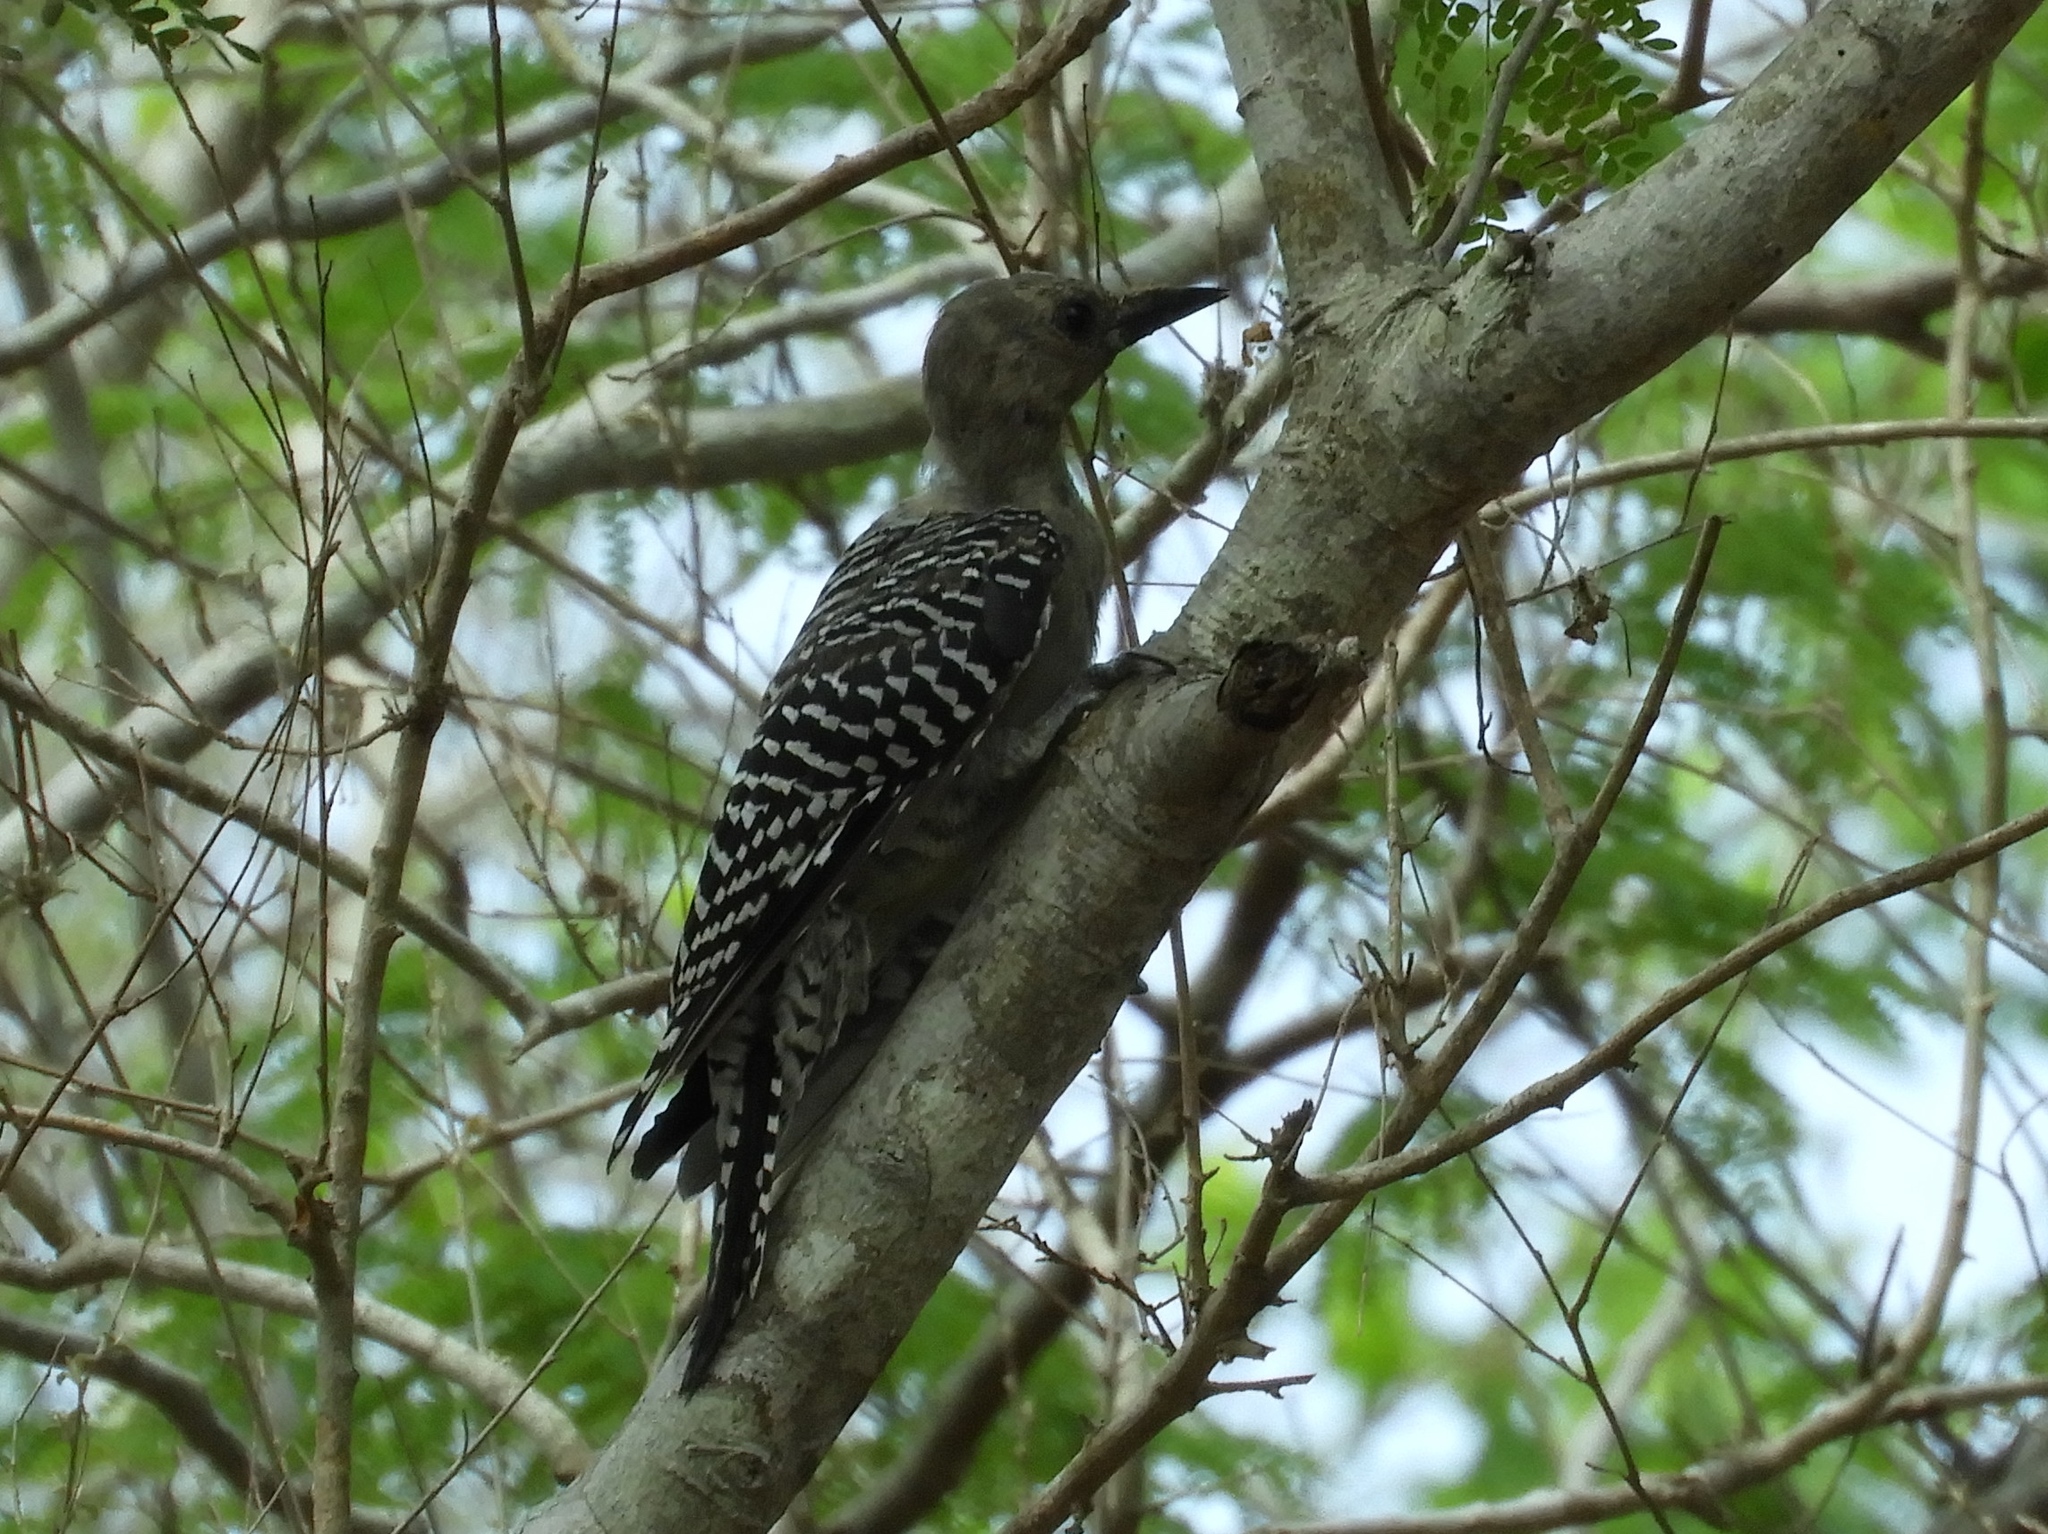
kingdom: Animalia
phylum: Chordata
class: Aves
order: Piciformes
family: Picidae
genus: Melanerpes
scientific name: Melanerpes uropygialis
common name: Gila woodpecker
